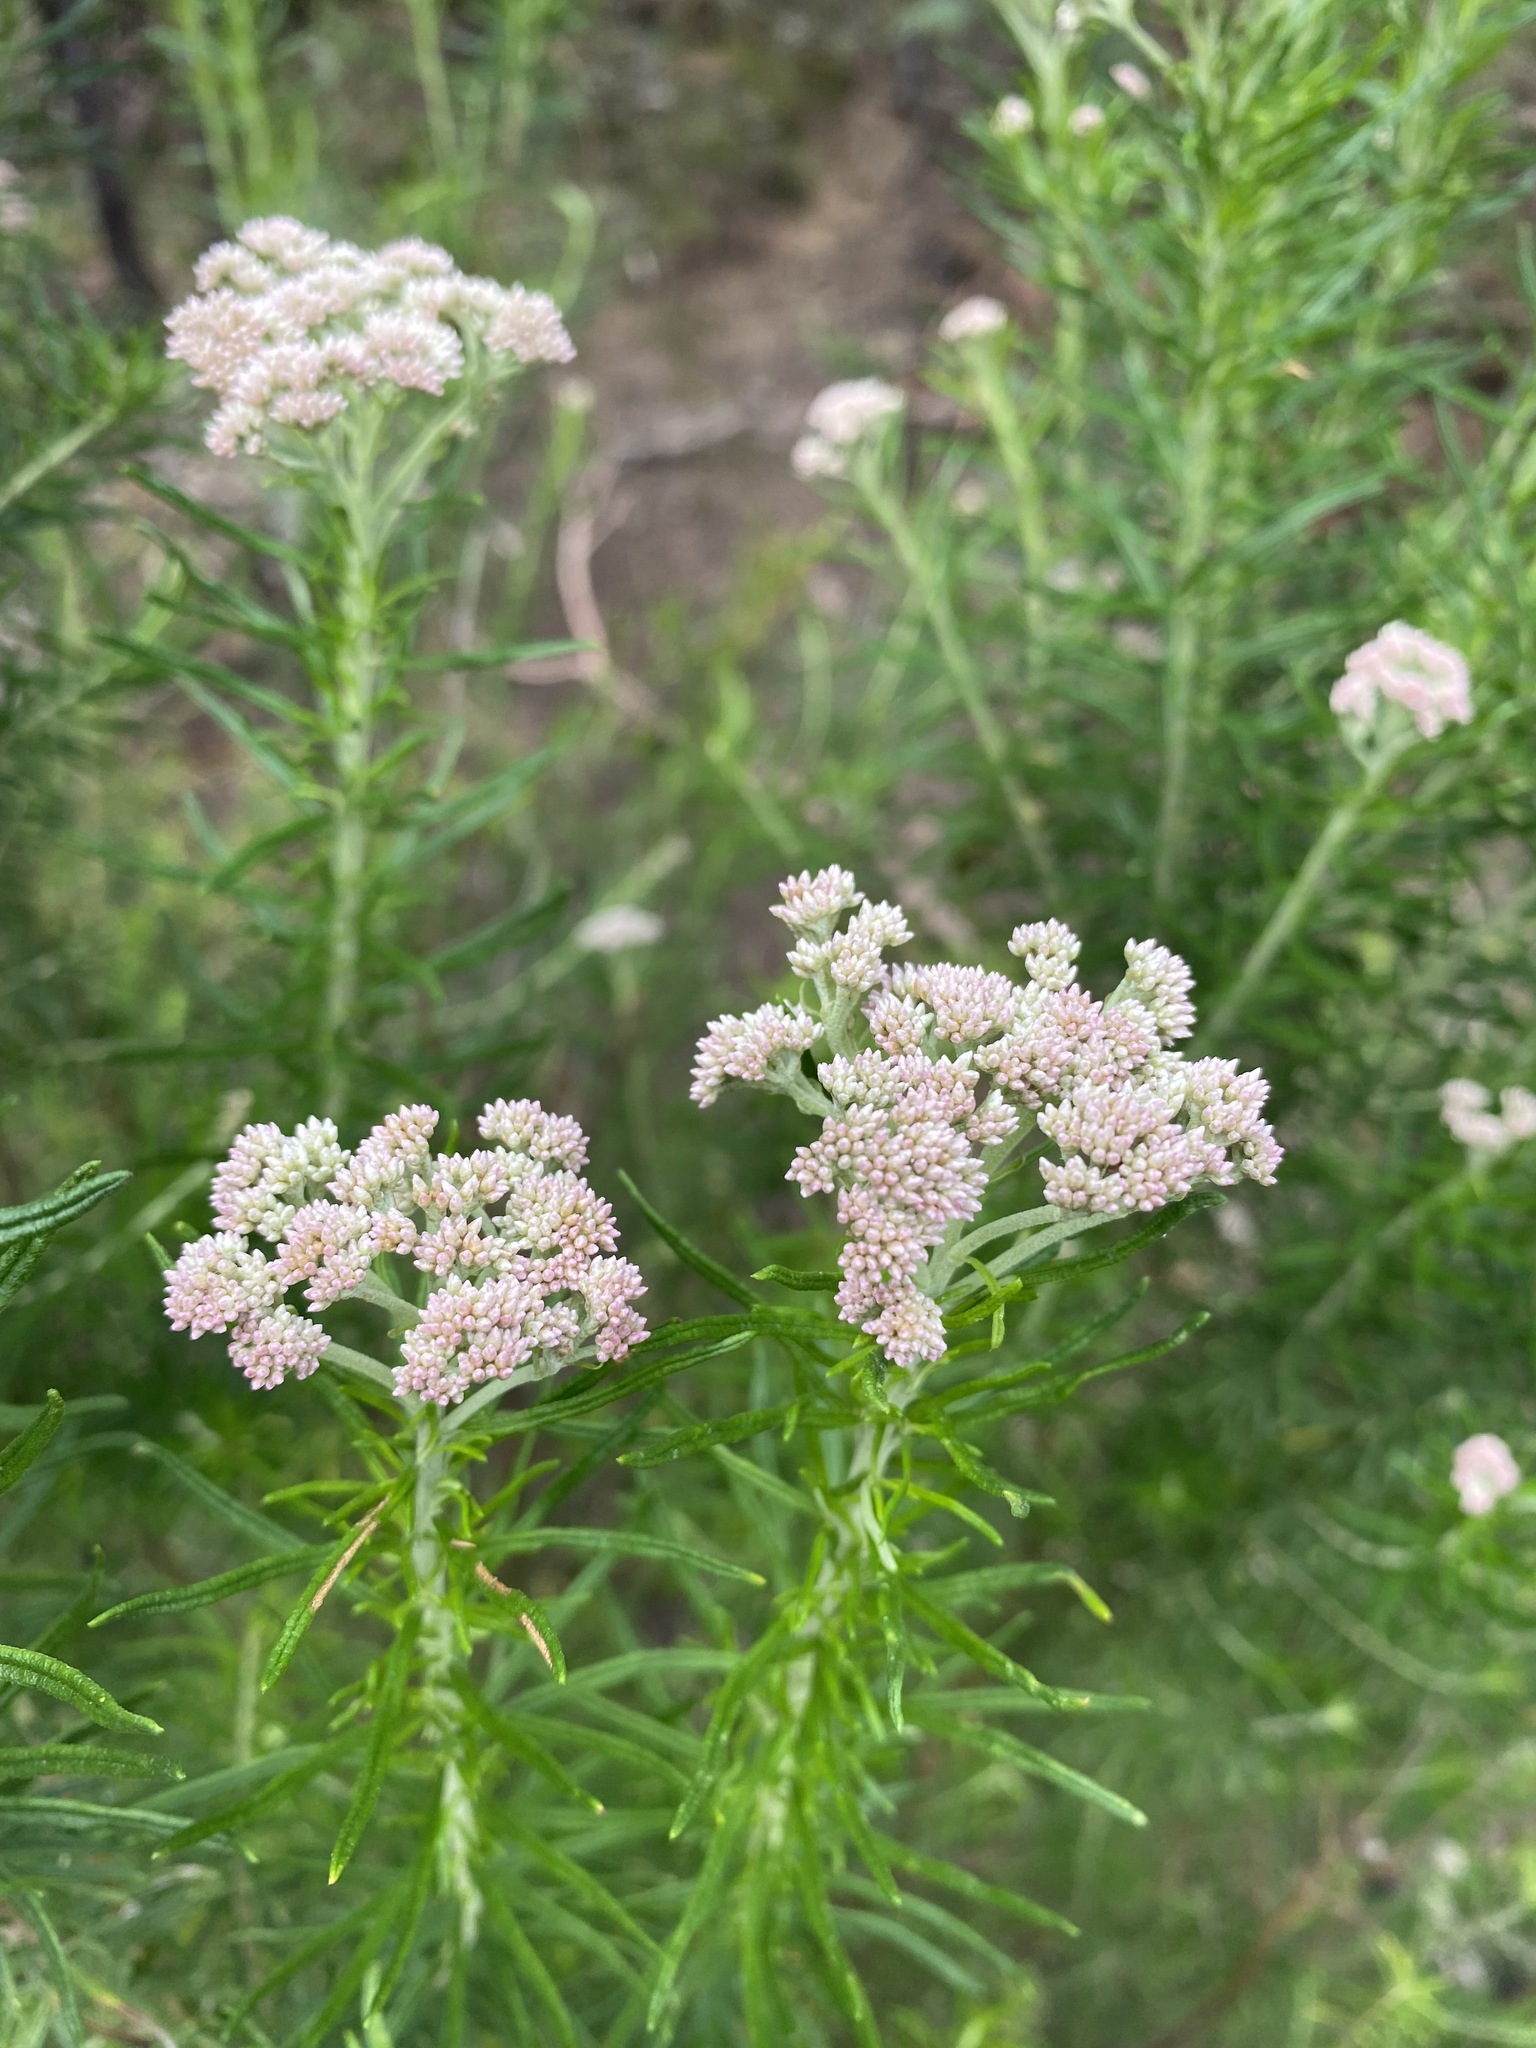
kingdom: Plantae
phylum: Tracheophyta
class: Magnoliopsida
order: Asterales
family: Asteraceae
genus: Cassinia
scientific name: Cassinia longifolia
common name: Longleaf-dogwood
